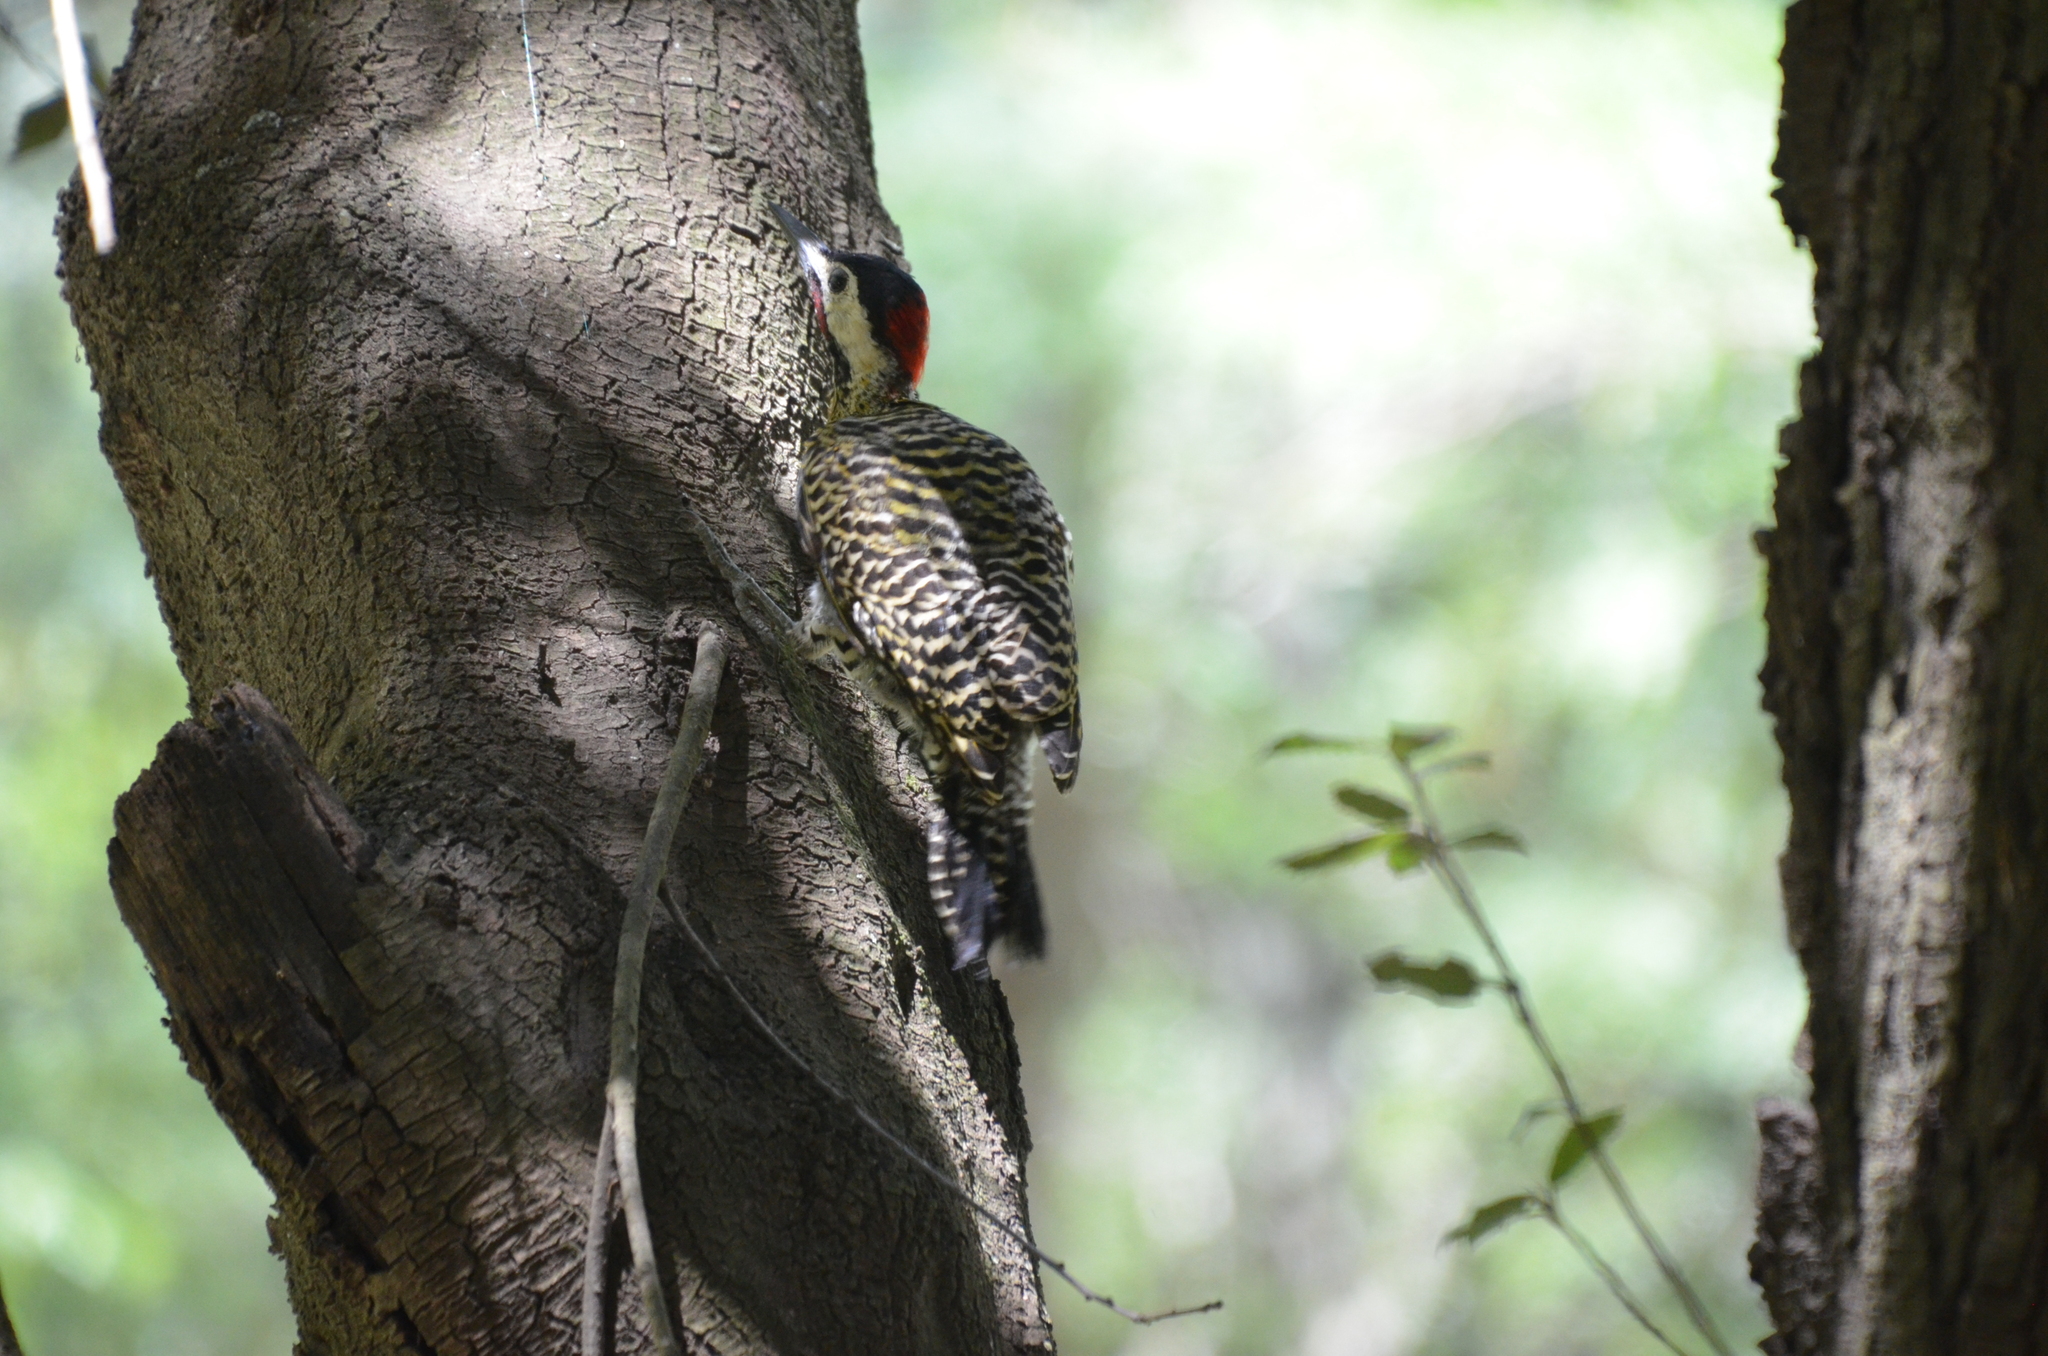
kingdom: Animalia
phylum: Chordata
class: Aves
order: Piciformes
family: Picidae
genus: Colaptes
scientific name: Colaptes melanochloros
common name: Green-barred woodpecker
